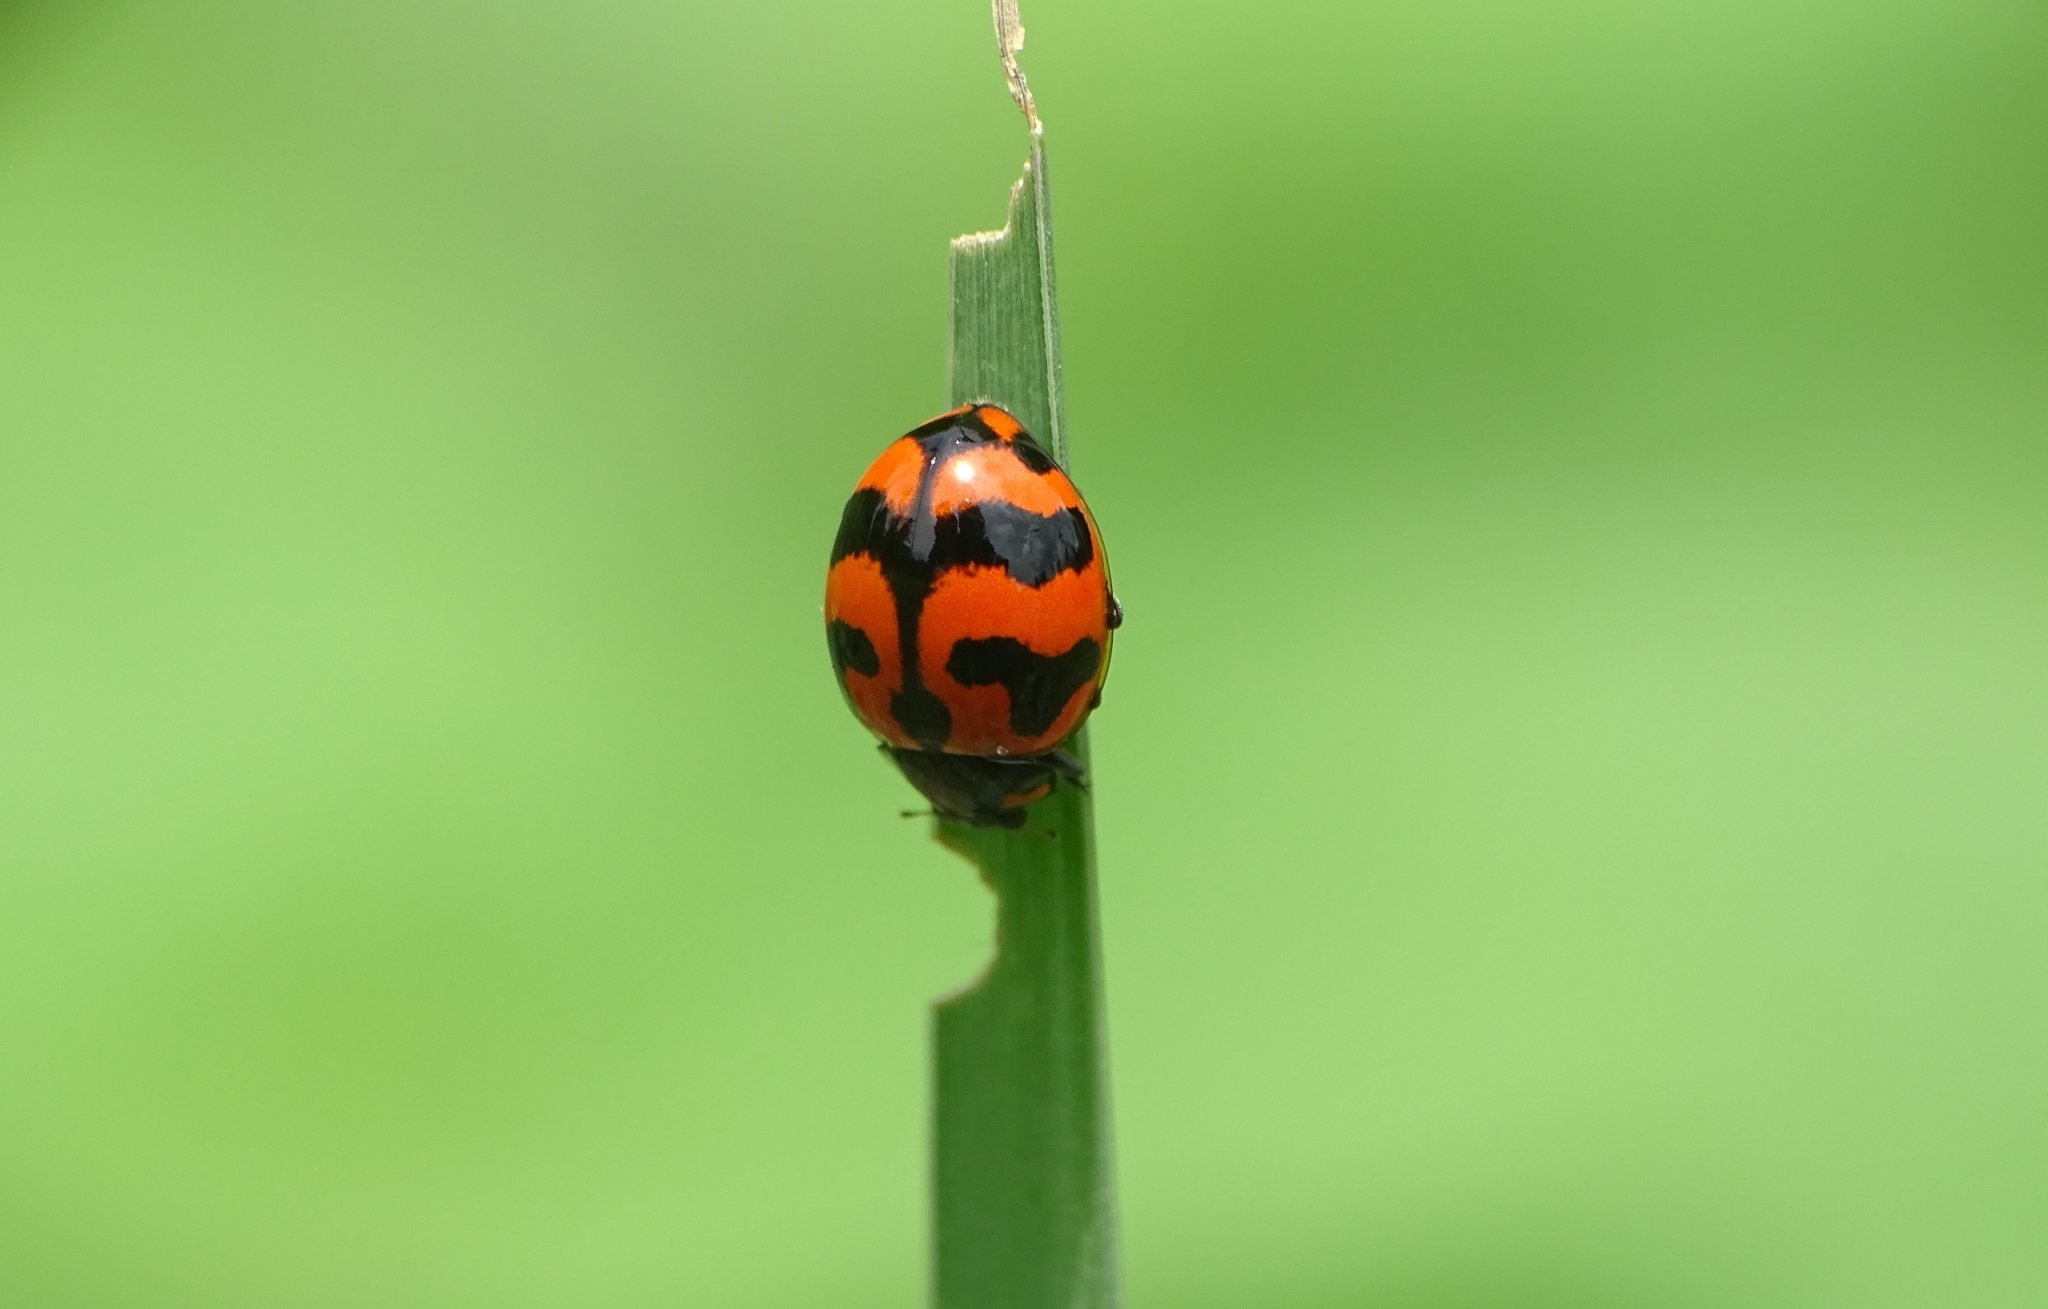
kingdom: Animalia
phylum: Arthropoda
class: Insecta
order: Coleoptera
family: Coccinellidae
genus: Coccinella
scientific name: Coccinella transversalis
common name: Transverse lady beetle
